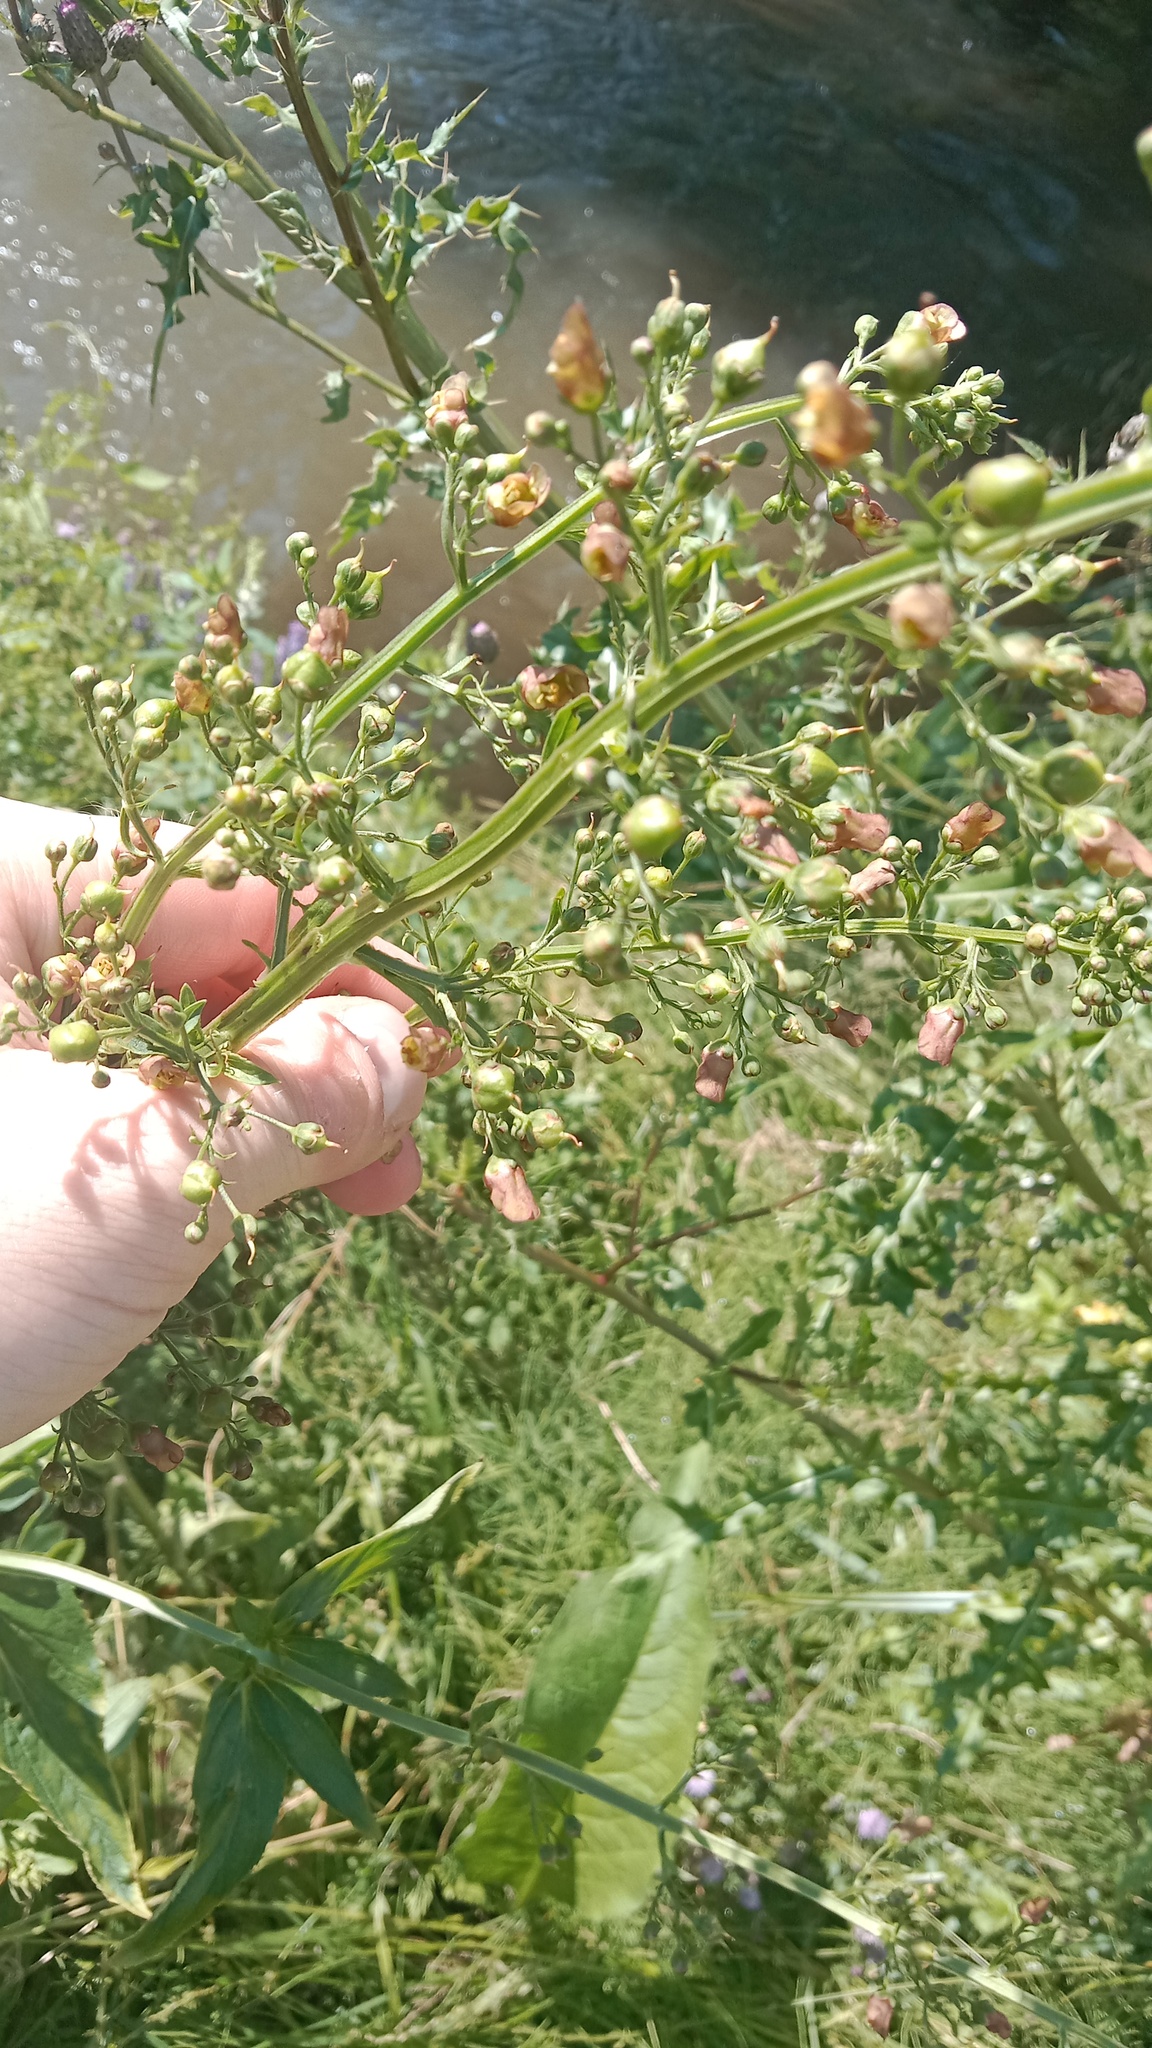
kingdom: Plantae
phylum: Tracheophyta
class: Magnoliopsida
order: Lamiales
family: Scrophulariaceae
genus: Scrophularia
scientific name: Scrophularia umbrosa
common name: Green figwort
